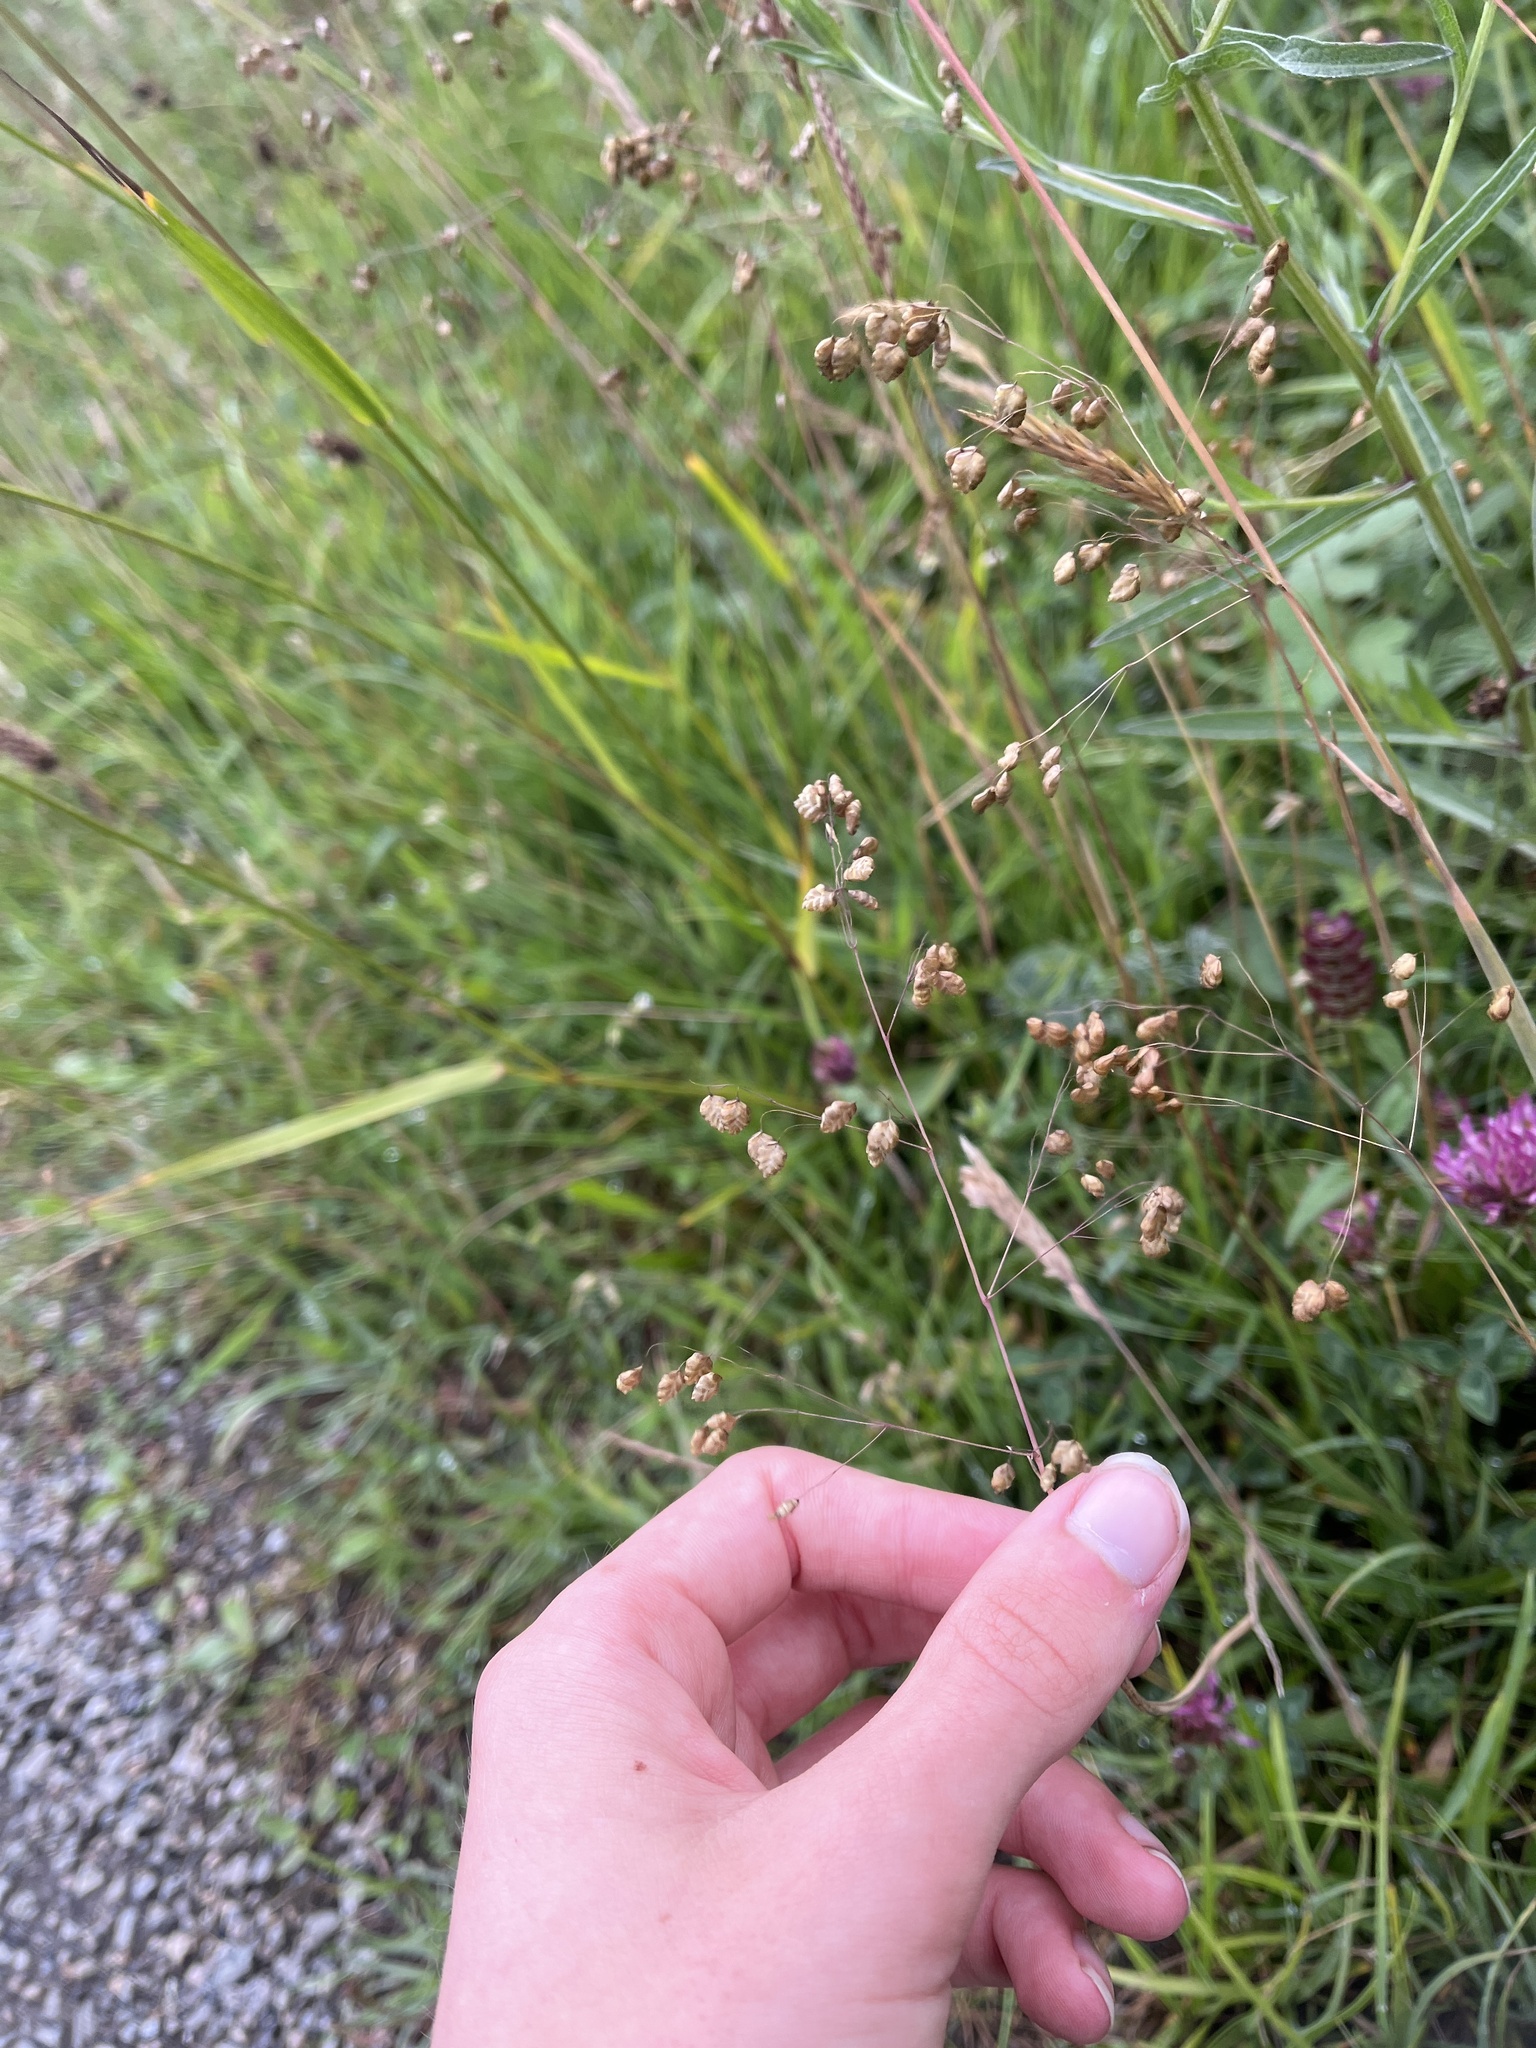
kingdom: Plantae
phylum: Tracheophyta
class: Liliopsida
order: Poales
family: Poaceae
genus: Briza
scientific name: Briza media
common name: Quaking grass
